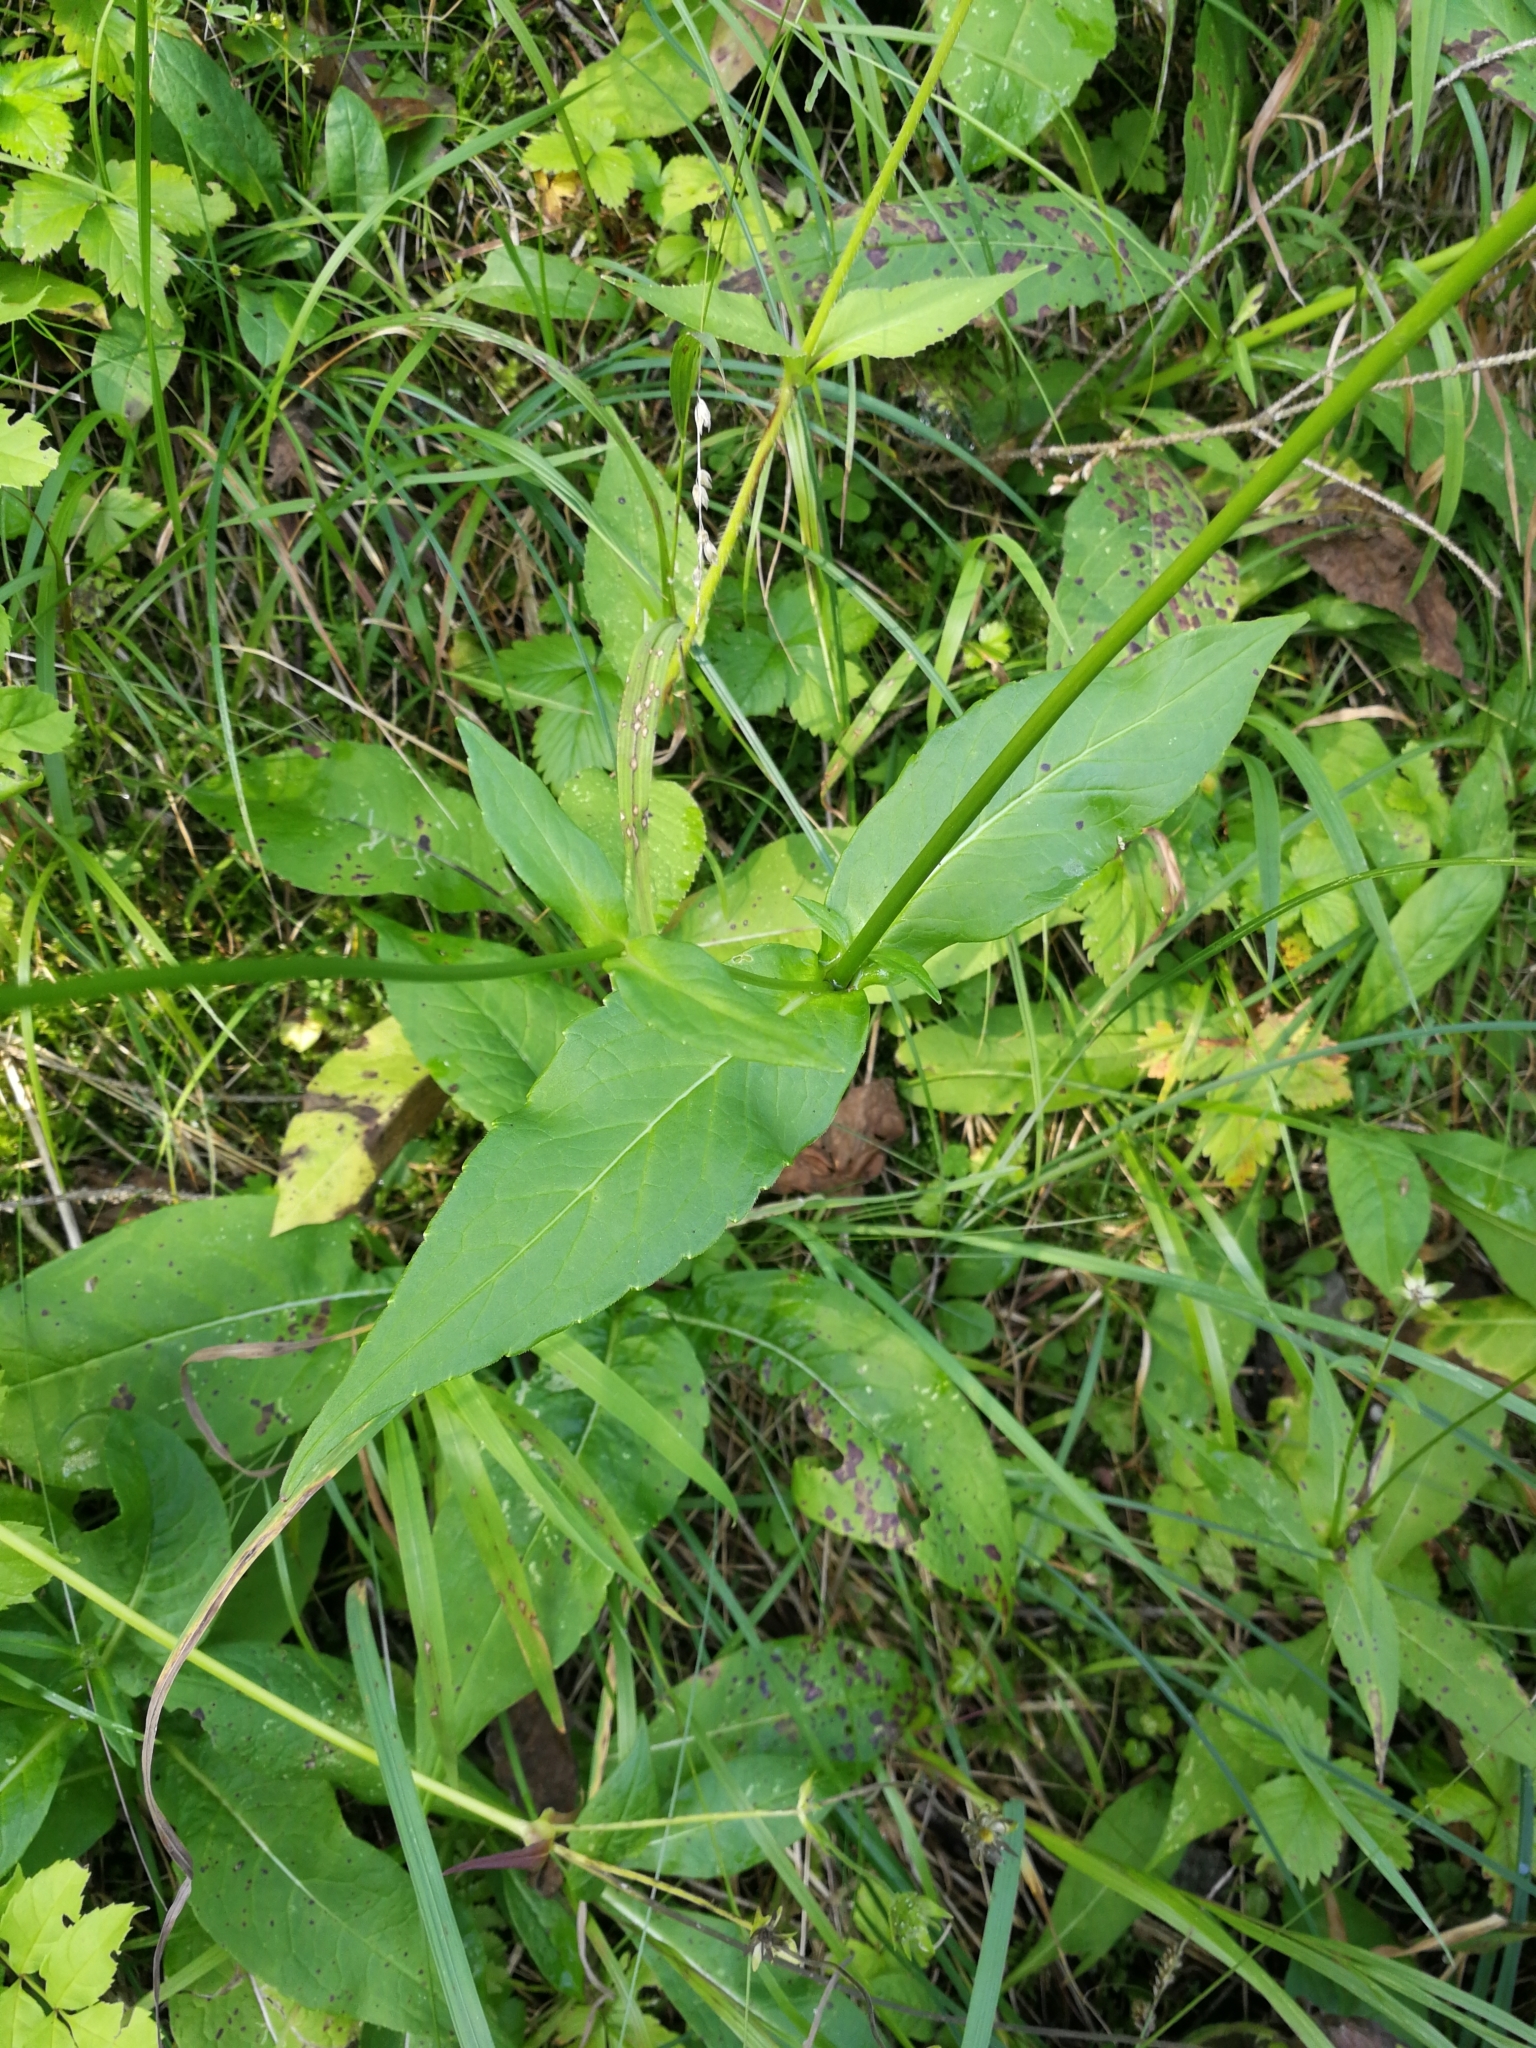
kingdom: Plantae
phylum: Tracheophyta
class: Magnoliopsida
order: Dipsacales
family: Caprifoliaceae
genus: Knautia
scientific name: Knautia dipsacifolia
